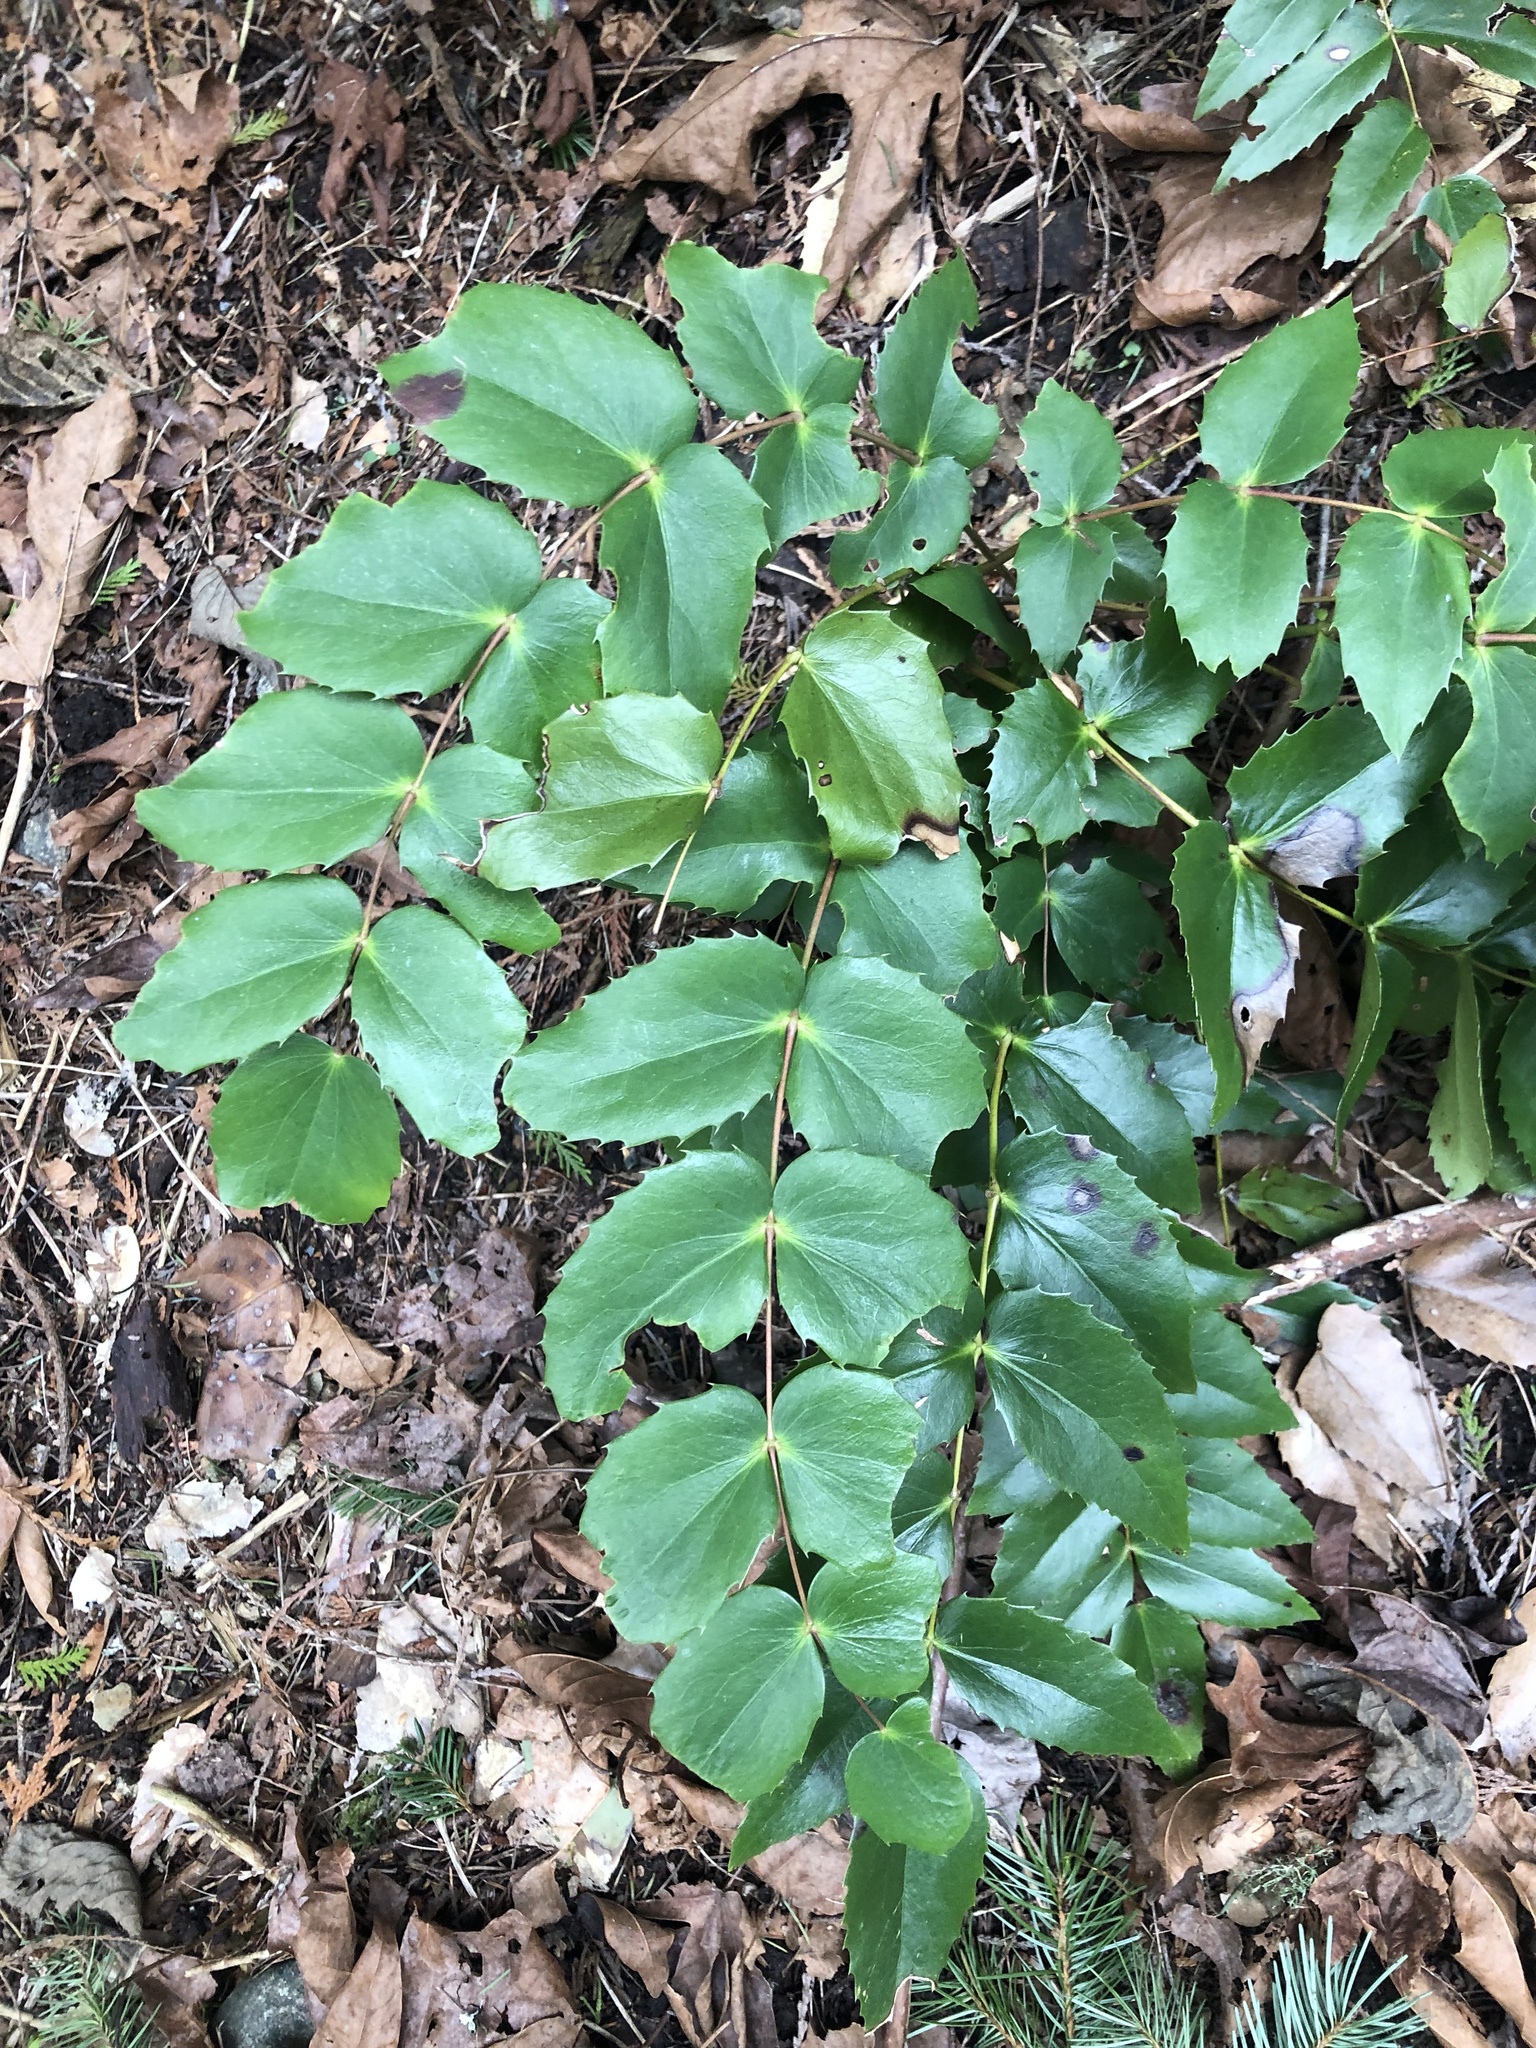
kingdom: Plantae
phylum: Tracheophyta
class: Magnoliopsida
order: Ranunculales
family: Berberidaceae
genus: Mahonia
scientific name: Mahonia nervosa
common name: Cascade oregon-grape
